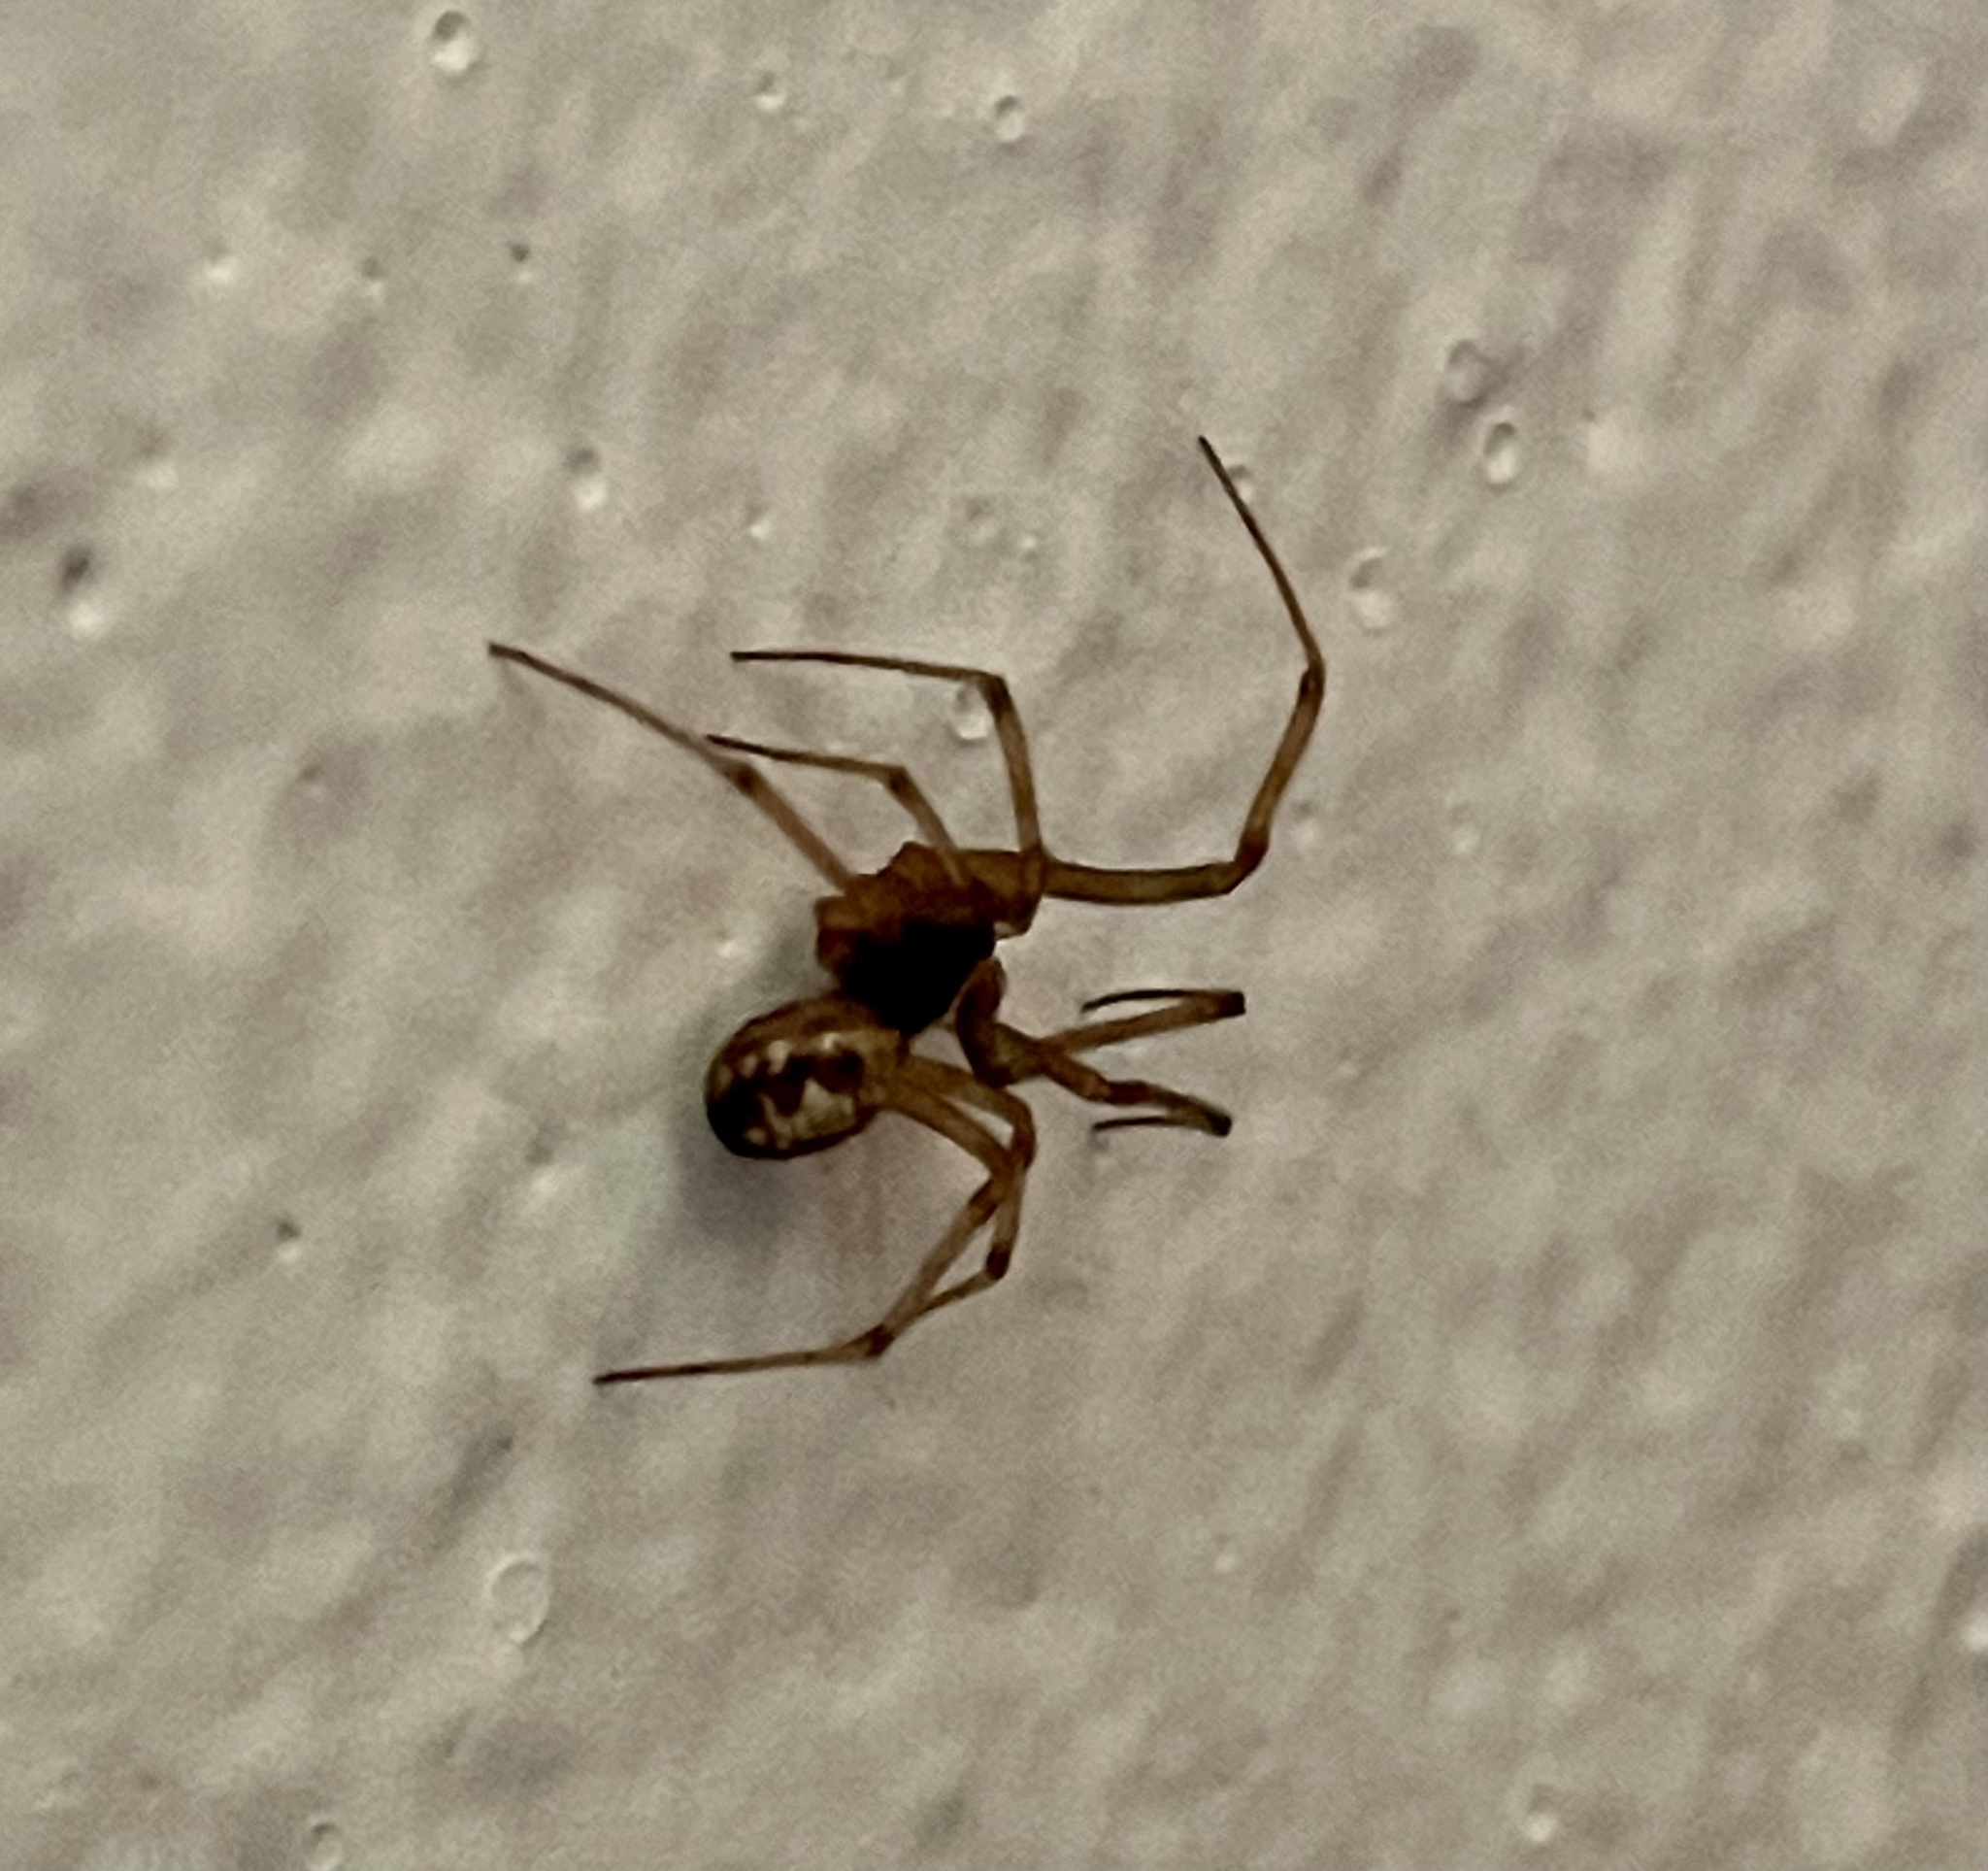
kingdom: Animalia
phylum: Arthropoda
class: Arachnida
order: Araneae
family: Theridiidae
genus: Steatoda
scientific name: Steatoda triangulosa
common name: Triangulate bud spider
